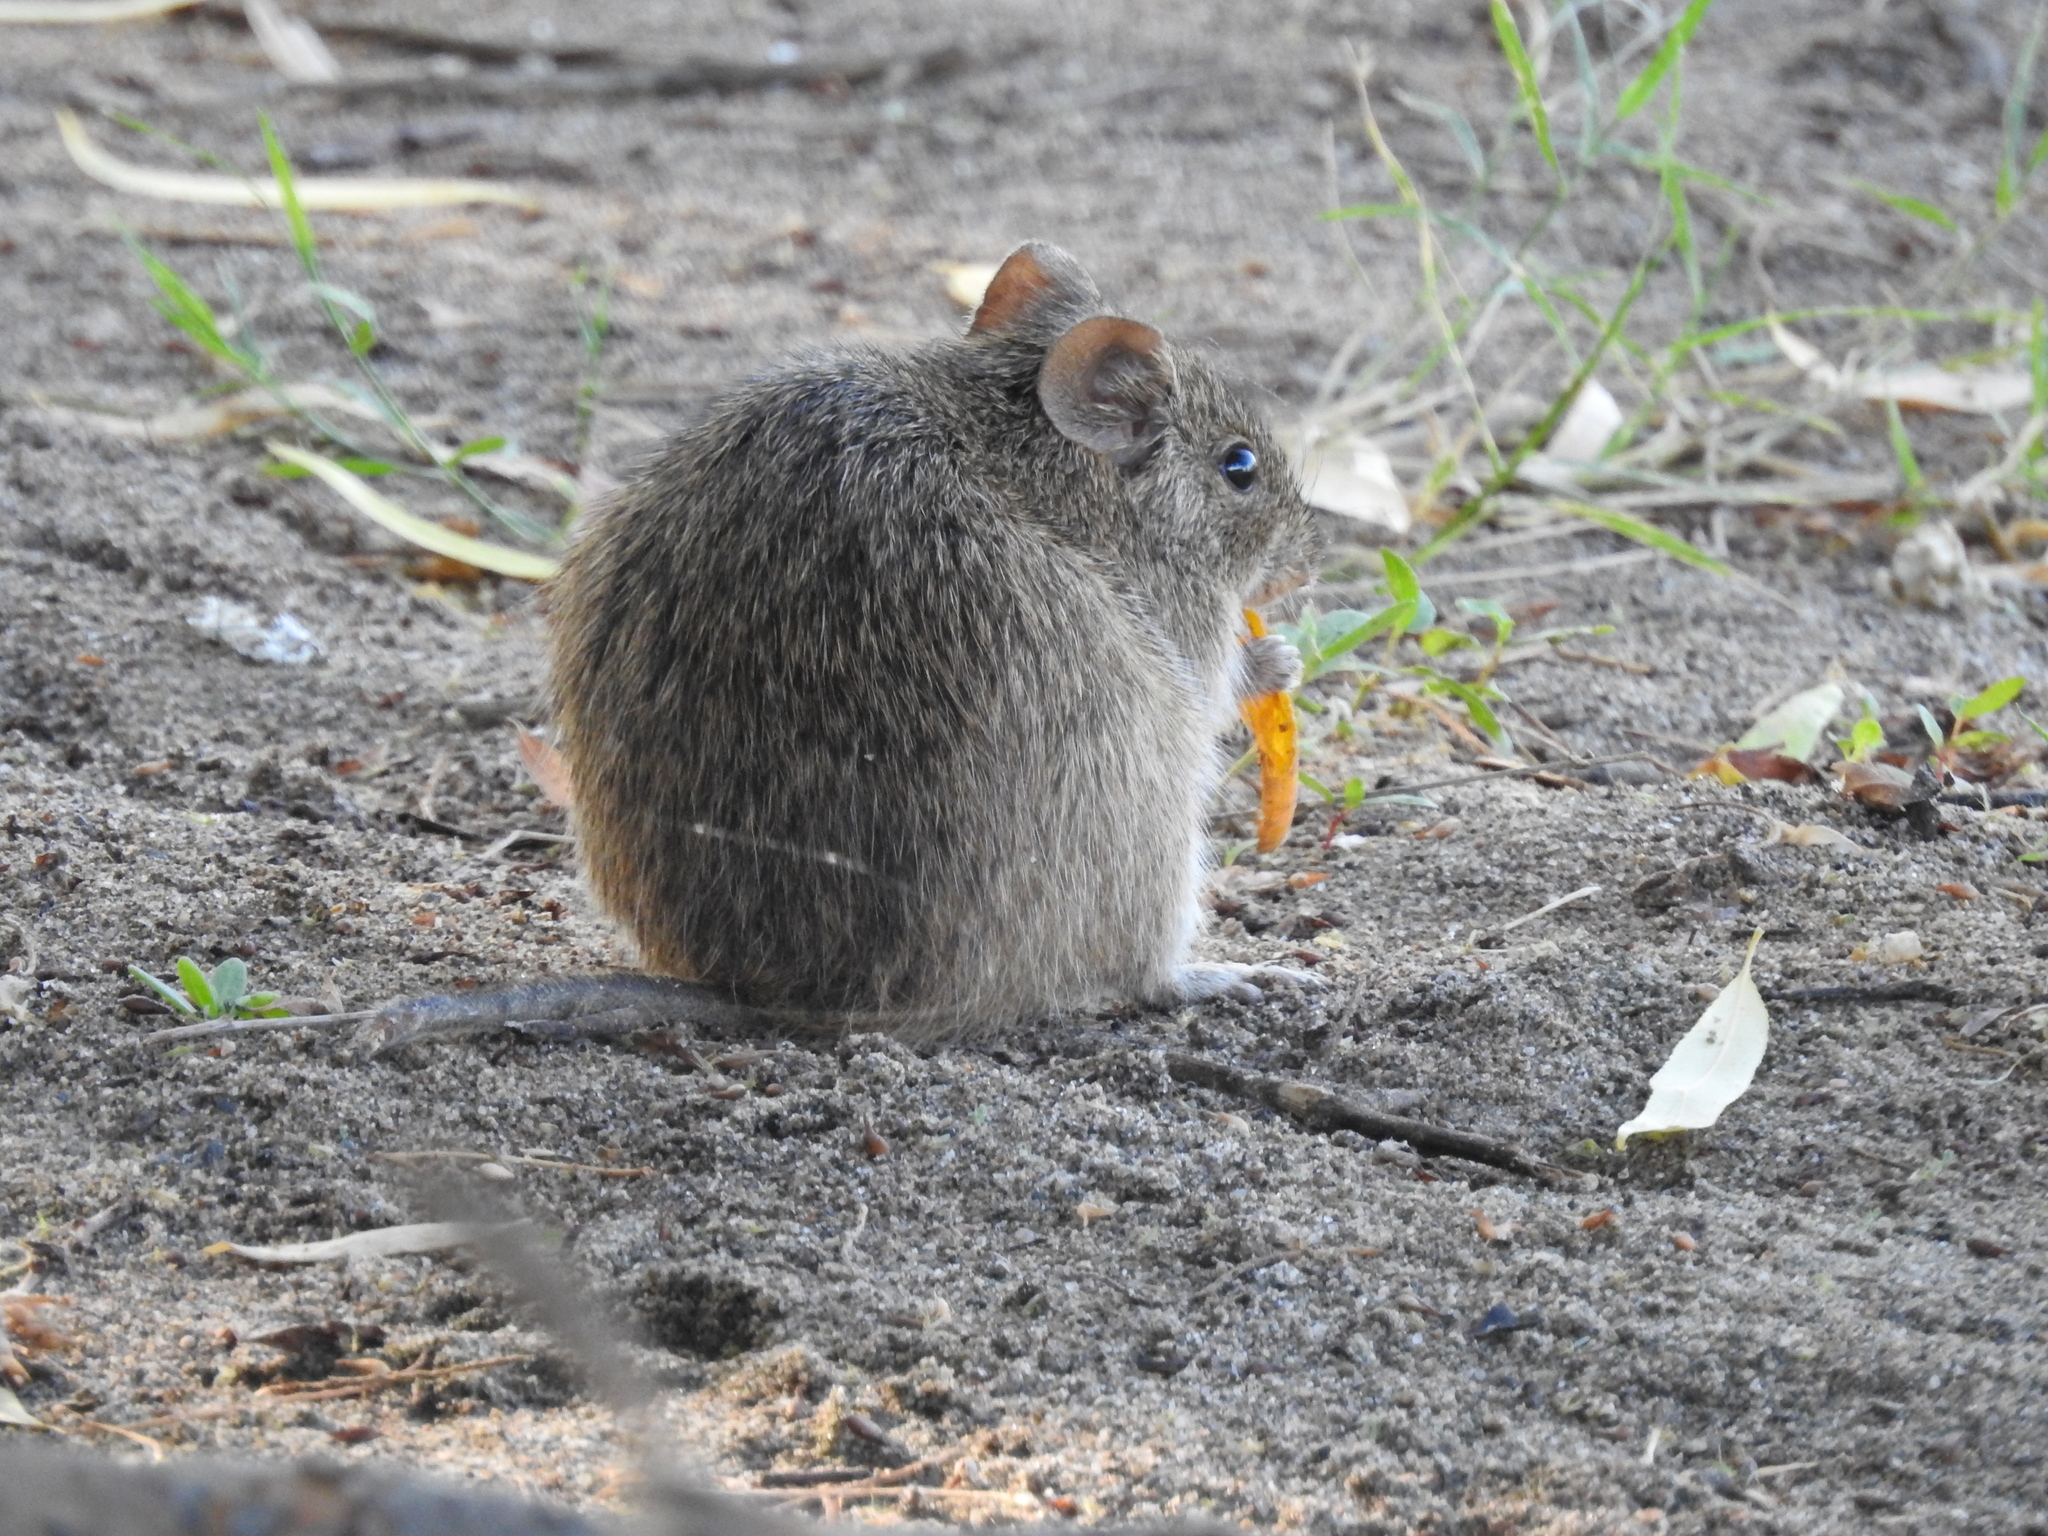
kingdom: Animalia
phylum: Chordata
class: Mammalia
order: Rodentia
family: Cricetidae
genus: Sigmodon
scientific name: Sigmodon arizonae
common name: Arizona cotton rat
